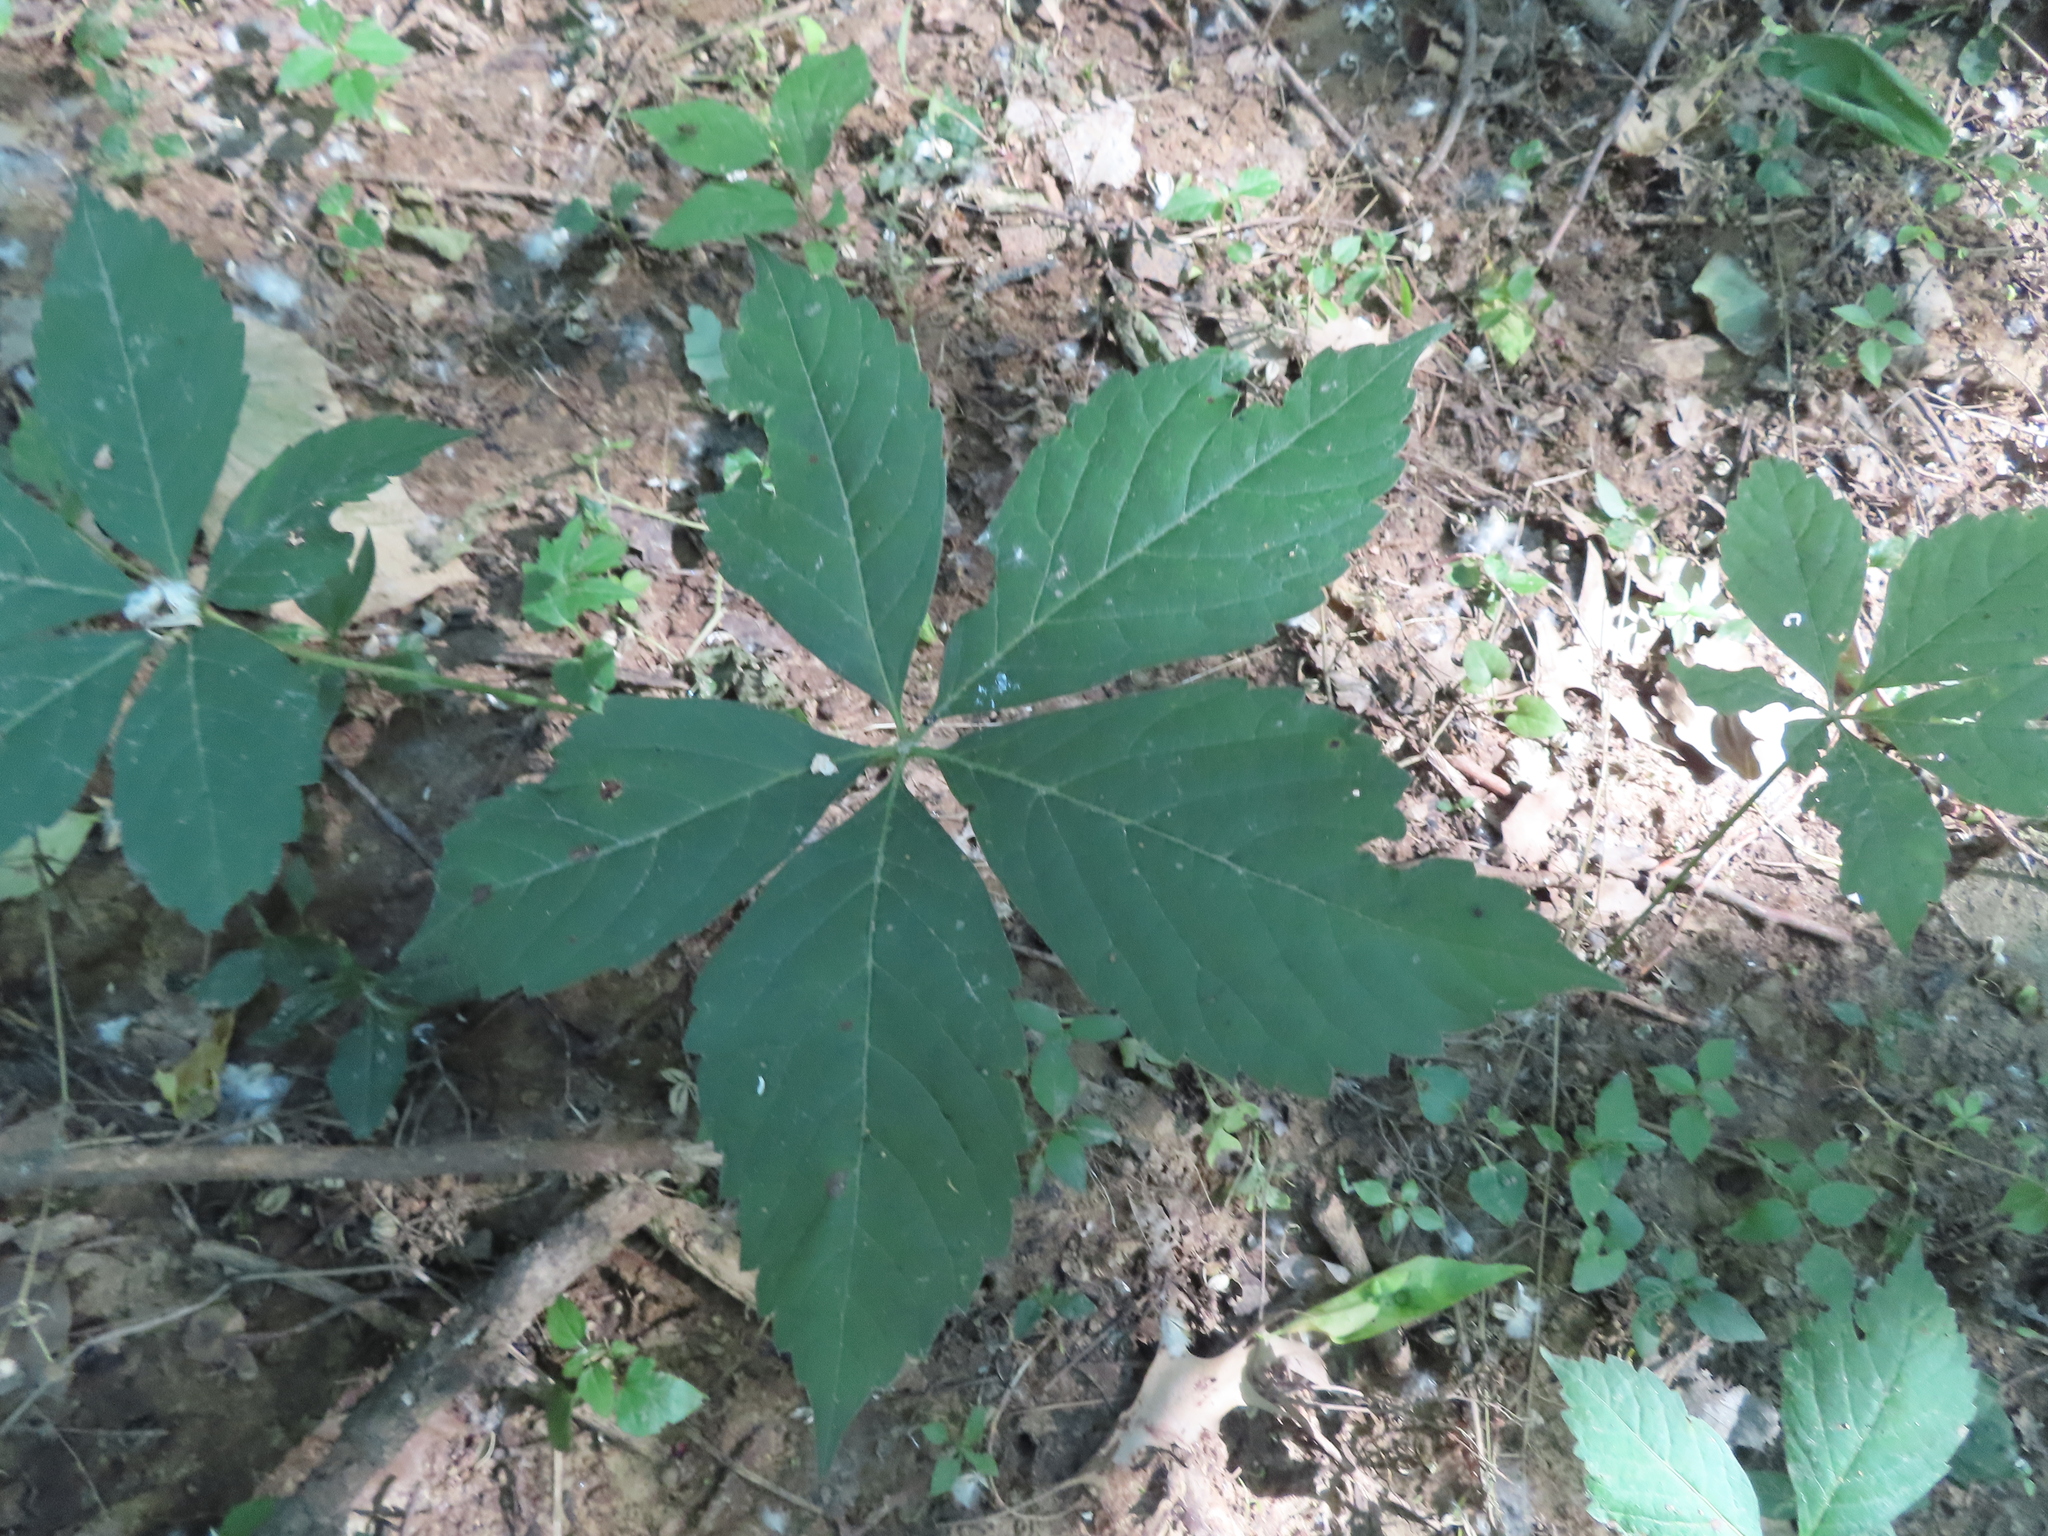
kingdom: Plantae
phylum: Tracheophyta
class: Magnoliopsida
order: Vitales
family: Vitaceae
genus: Parthenocissus
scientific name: Parthenocissus quinquefolia
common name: Virginia-creeper
